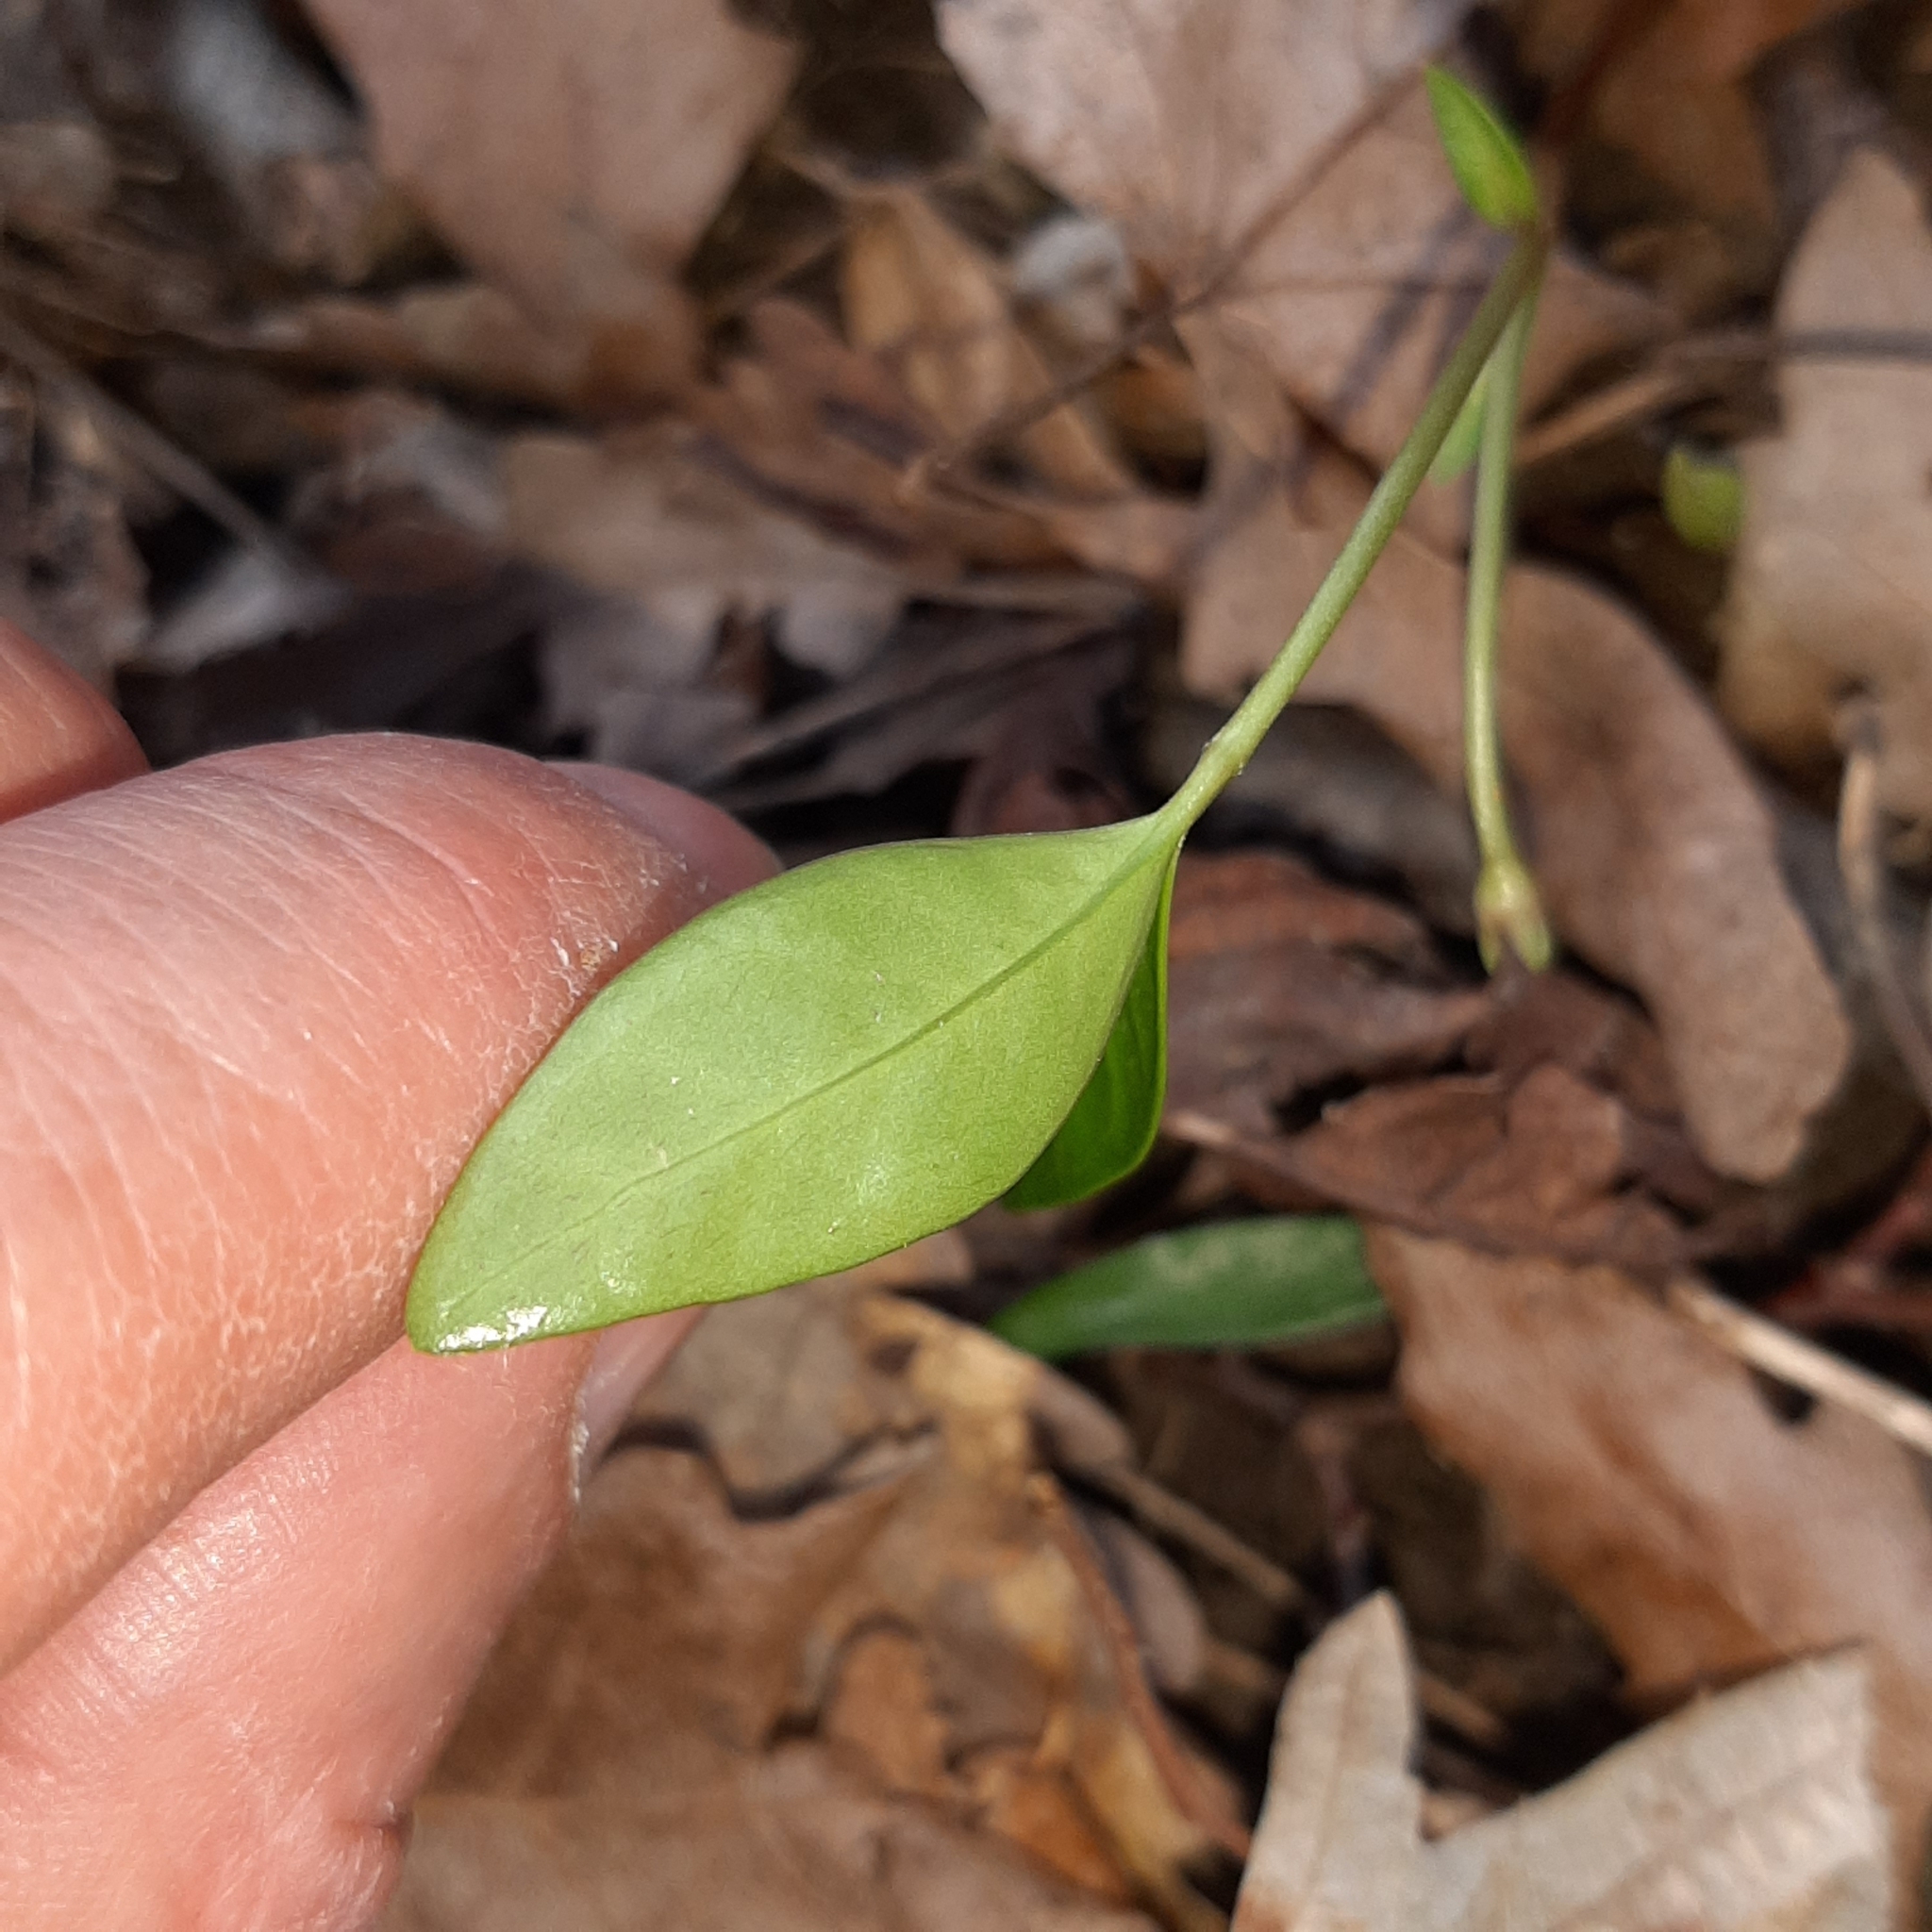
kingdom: Plantae
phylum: Tracheophyta
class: Magnoliopsida
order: Gentianales
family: Apocynaceae
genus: Vinca
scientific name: Vinca minor
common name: Lesser periwinkle
